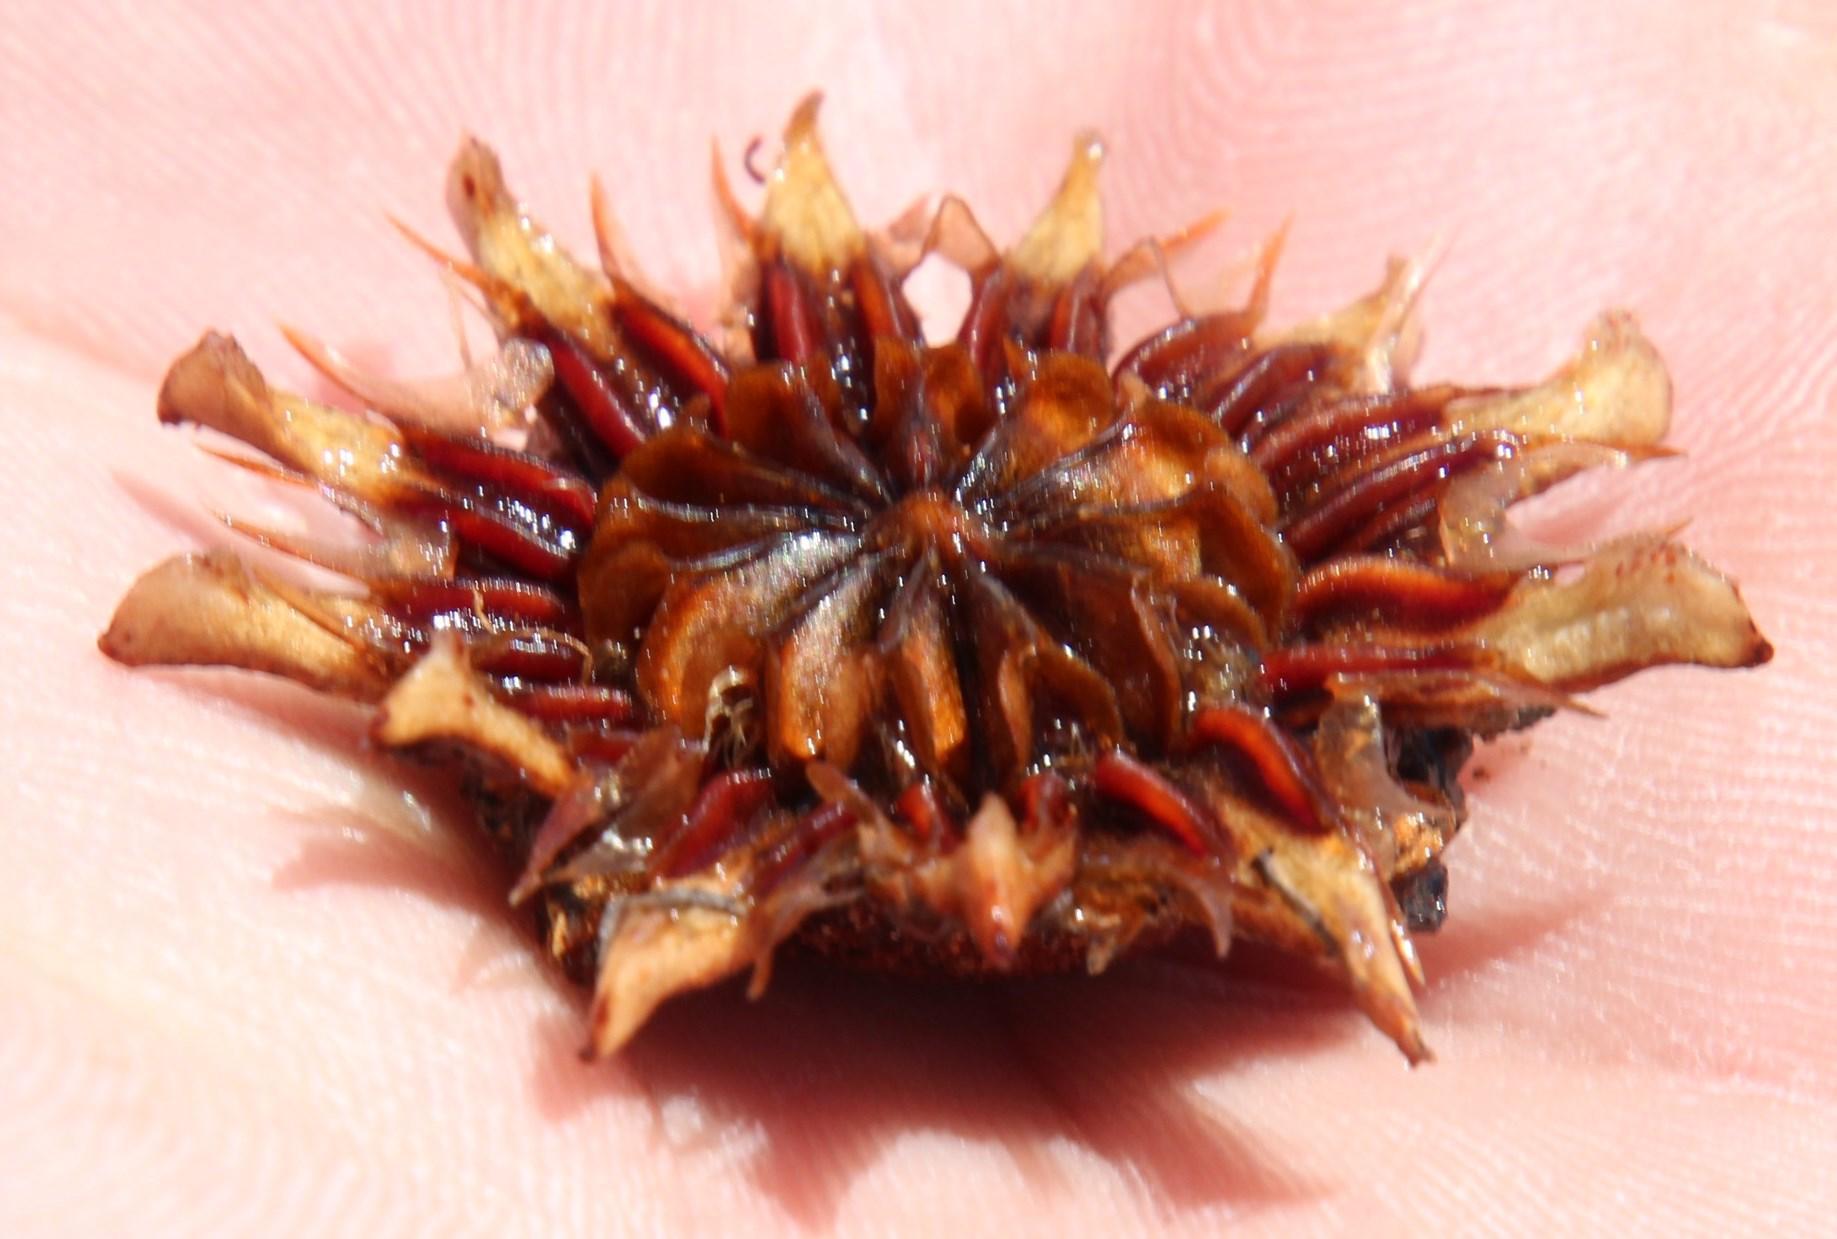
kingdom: Plantae
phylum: Tracheophyta
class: Magnoliopsida
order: Caryophyllales
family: Aizoaceae
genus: Pleiospilos
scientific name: Pleiospilos bolusii
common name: African living-rock
